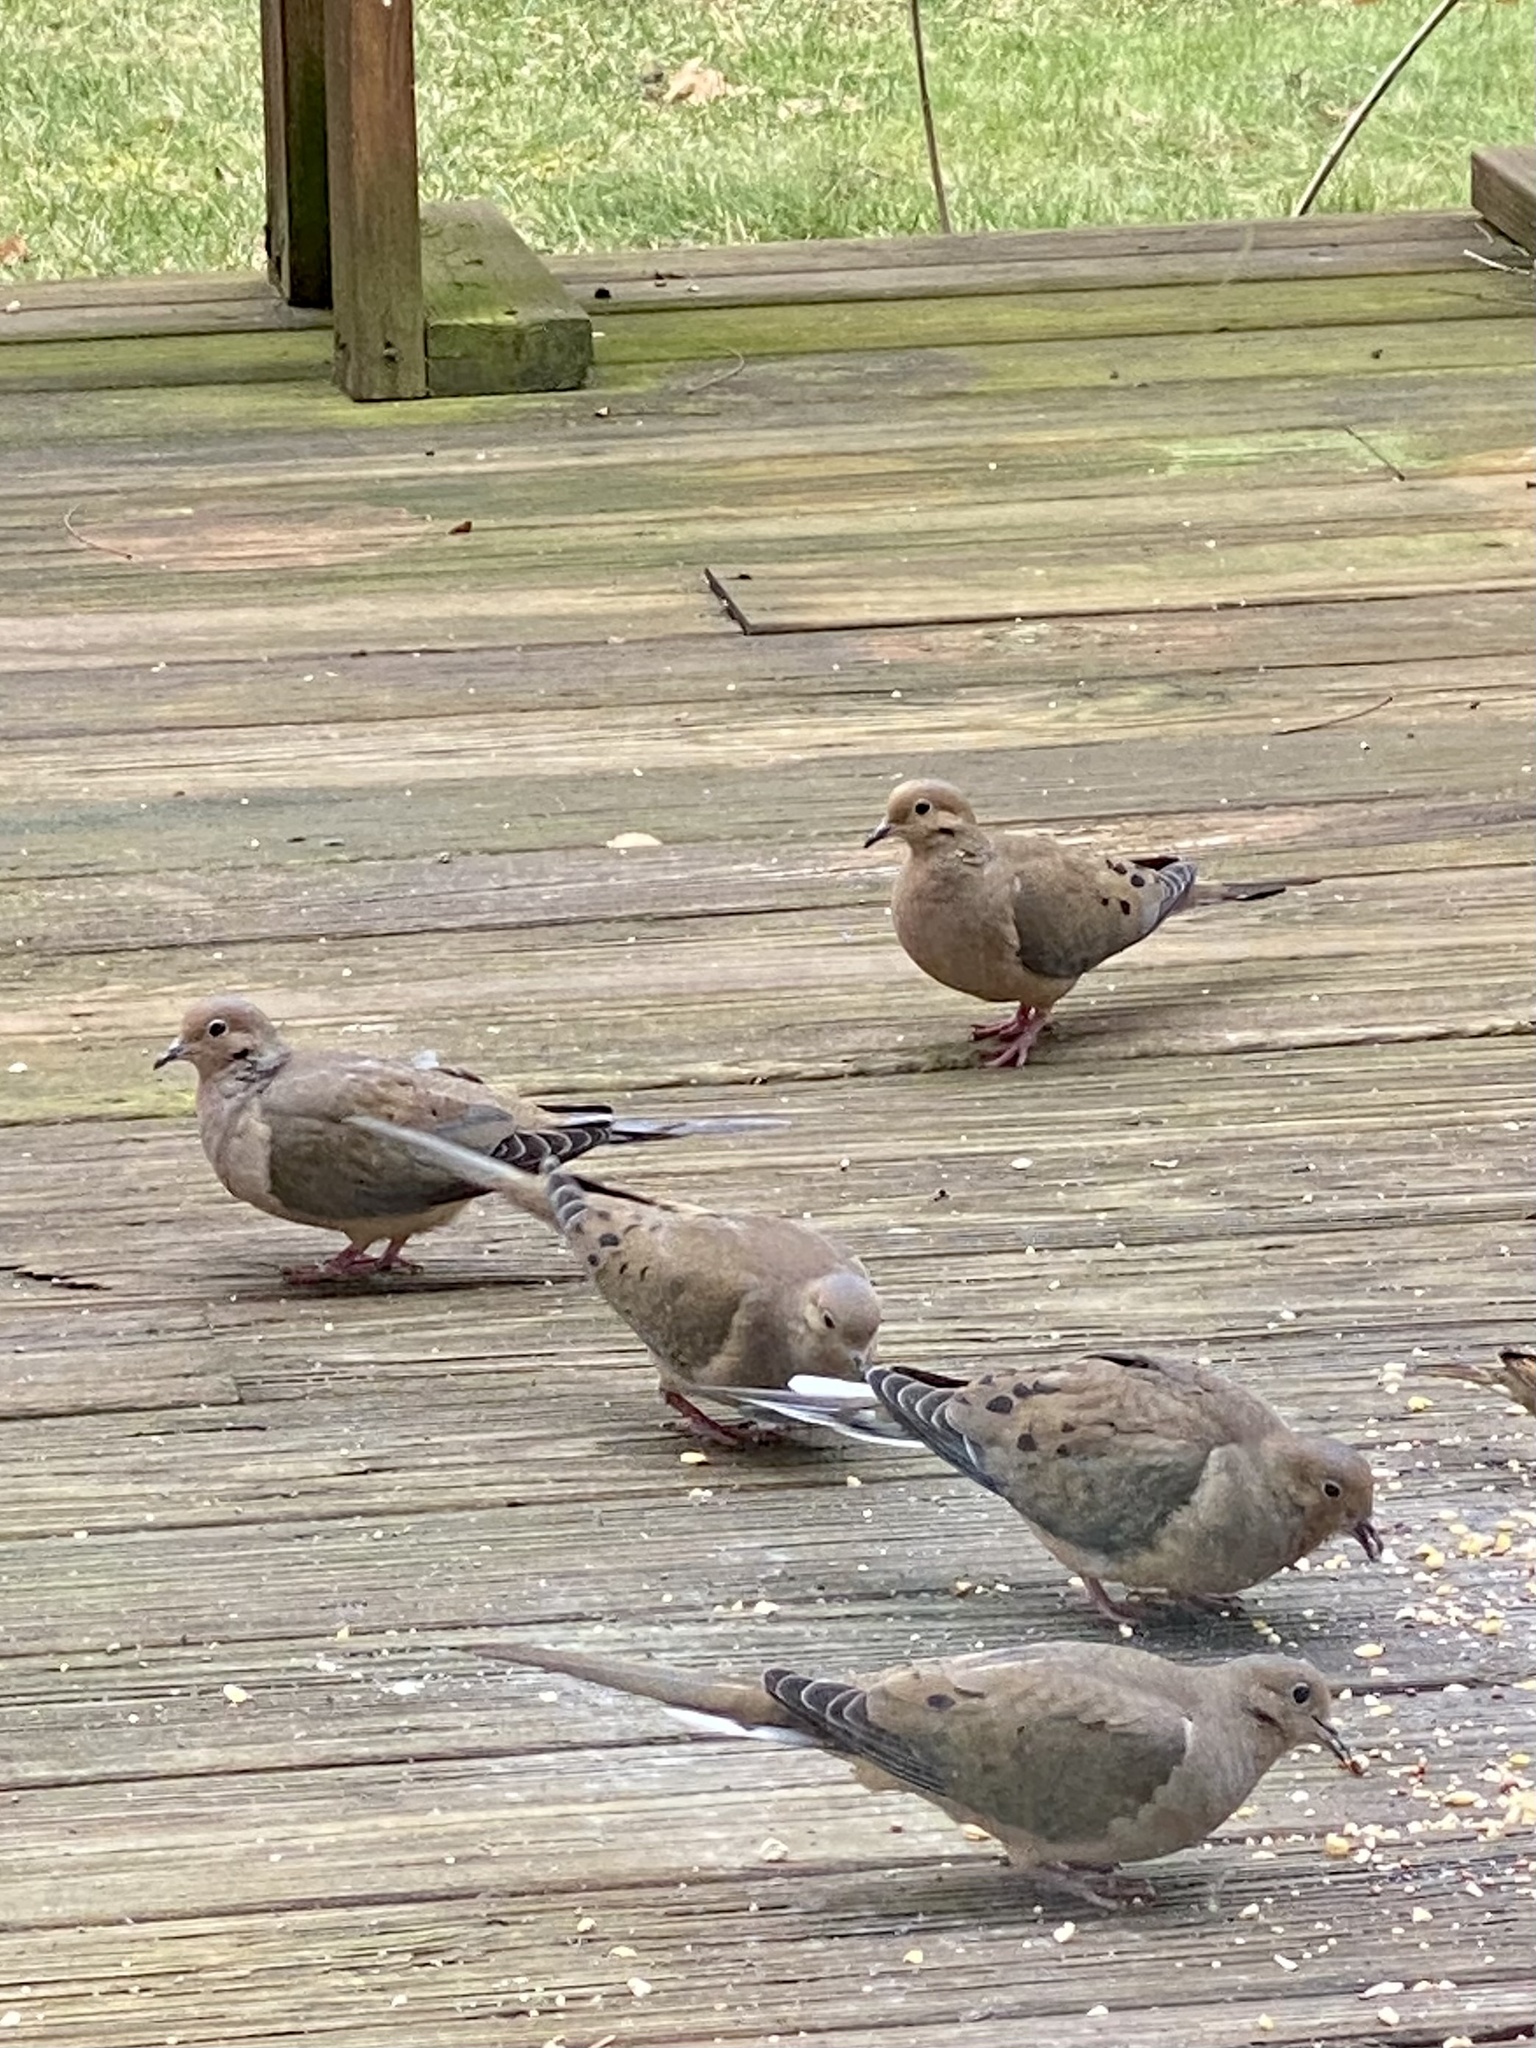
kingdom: Animalia
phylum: Chordata
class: Aves
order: Columbiformes
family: Columbidae
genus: Zenaida
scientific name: Zenaida macroura
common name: Mourning dove
